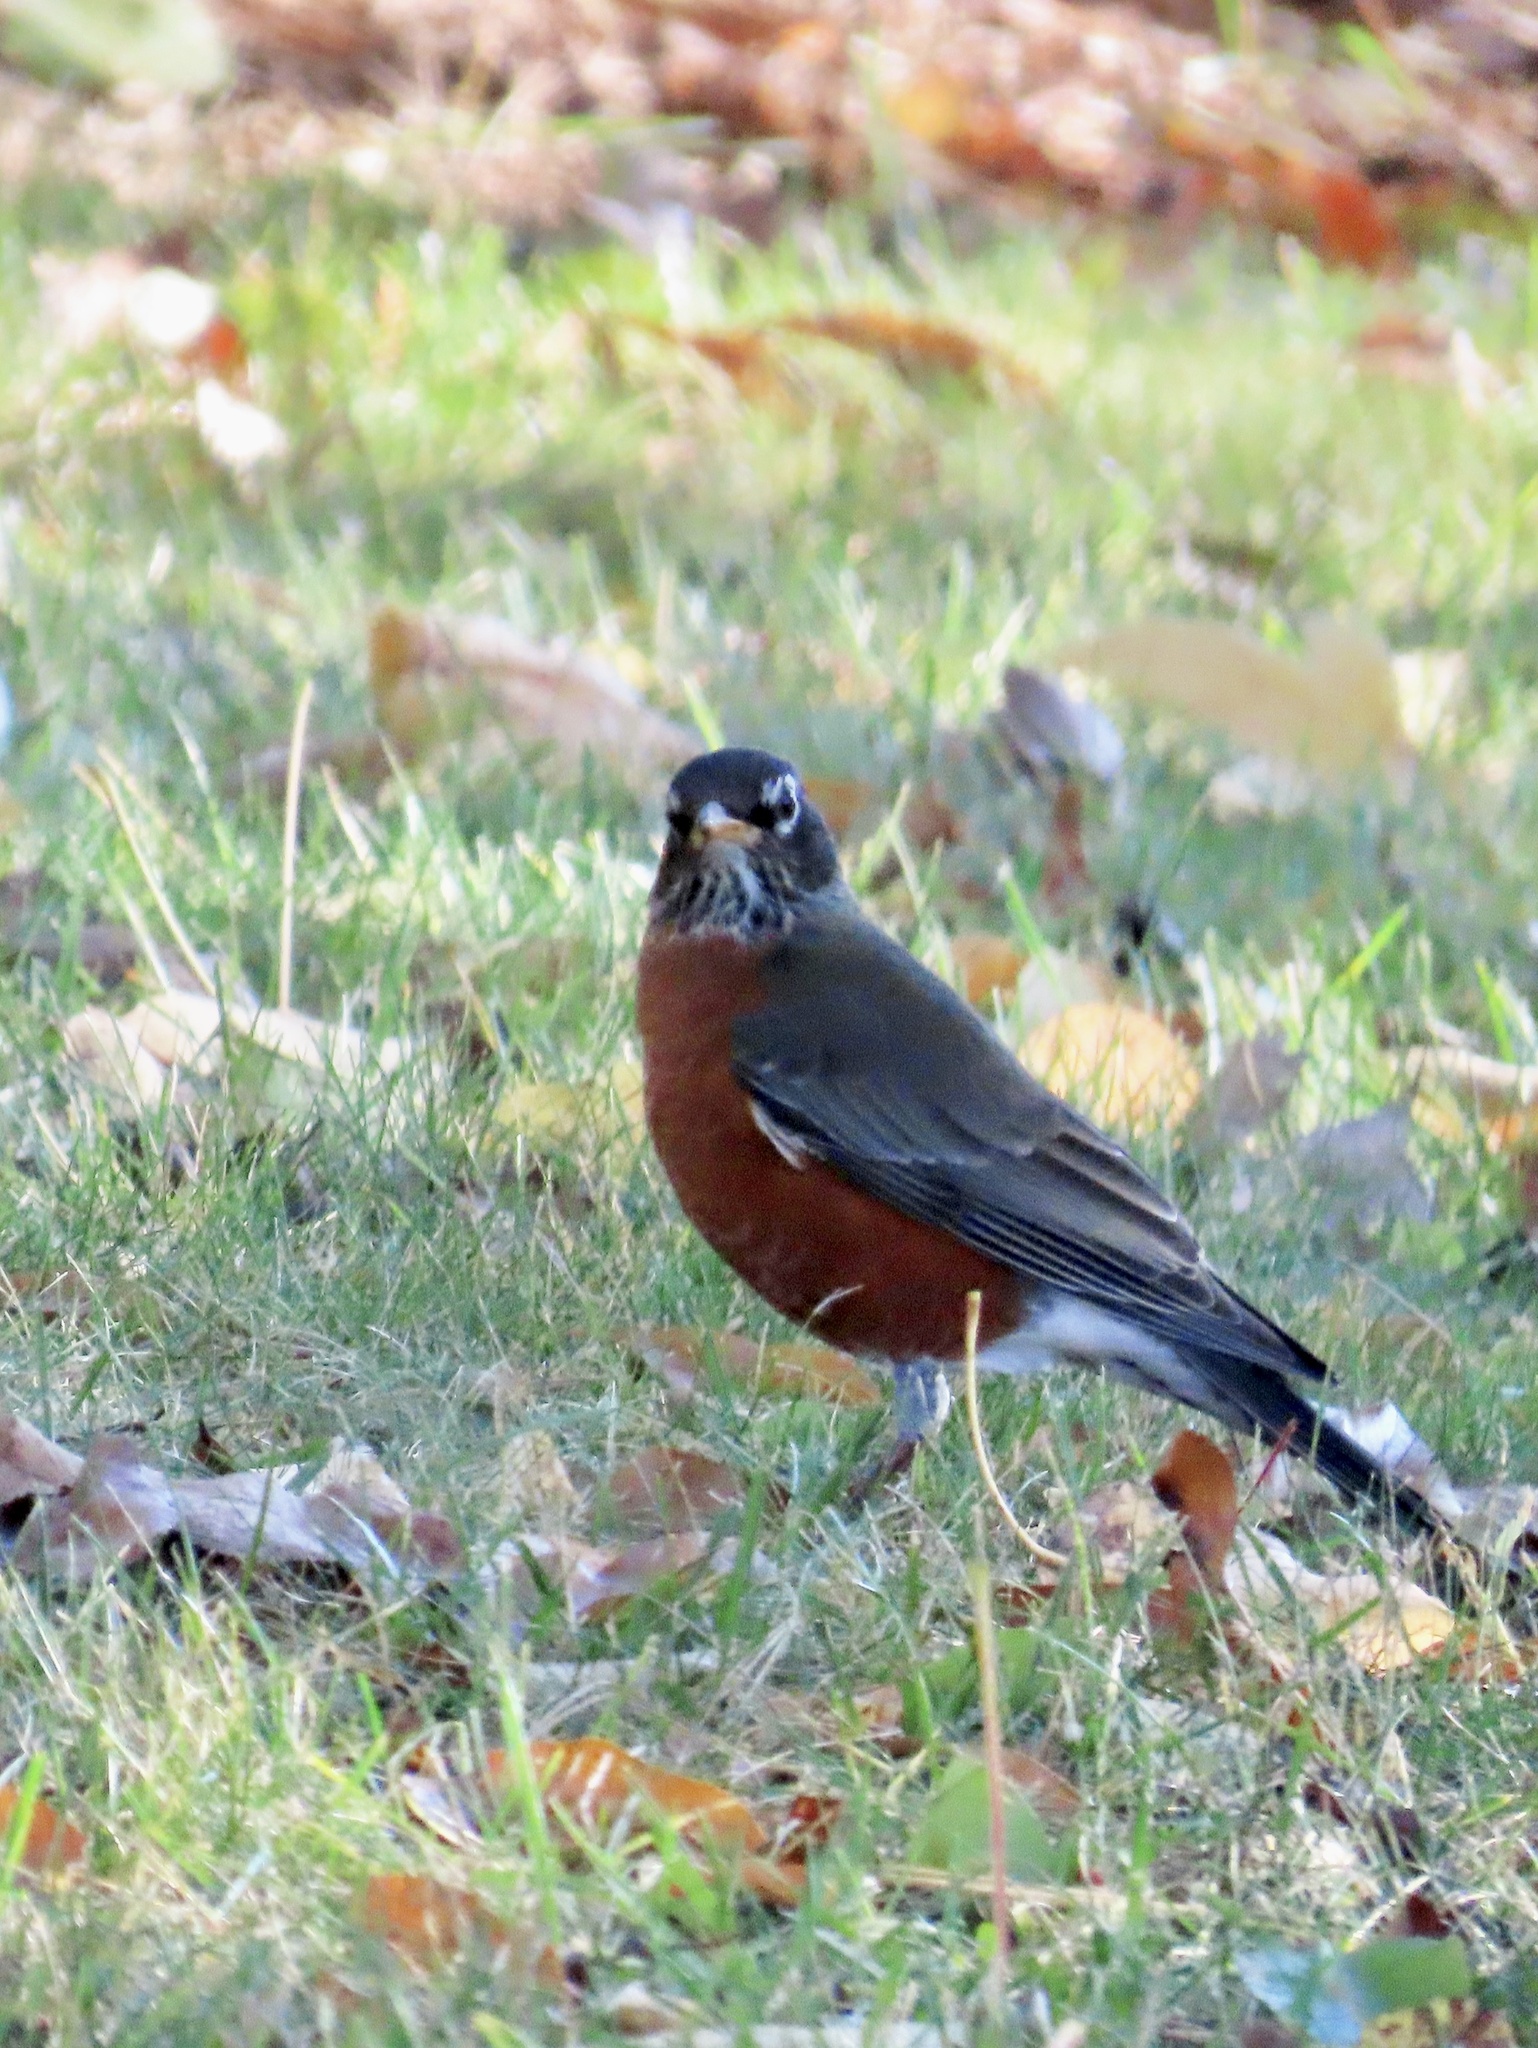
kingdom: Animalia
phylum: Chordata
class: Aves
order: Passeriformes
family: Turdidae
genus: Turdus
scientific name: Turdus migratorius
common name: American robin
